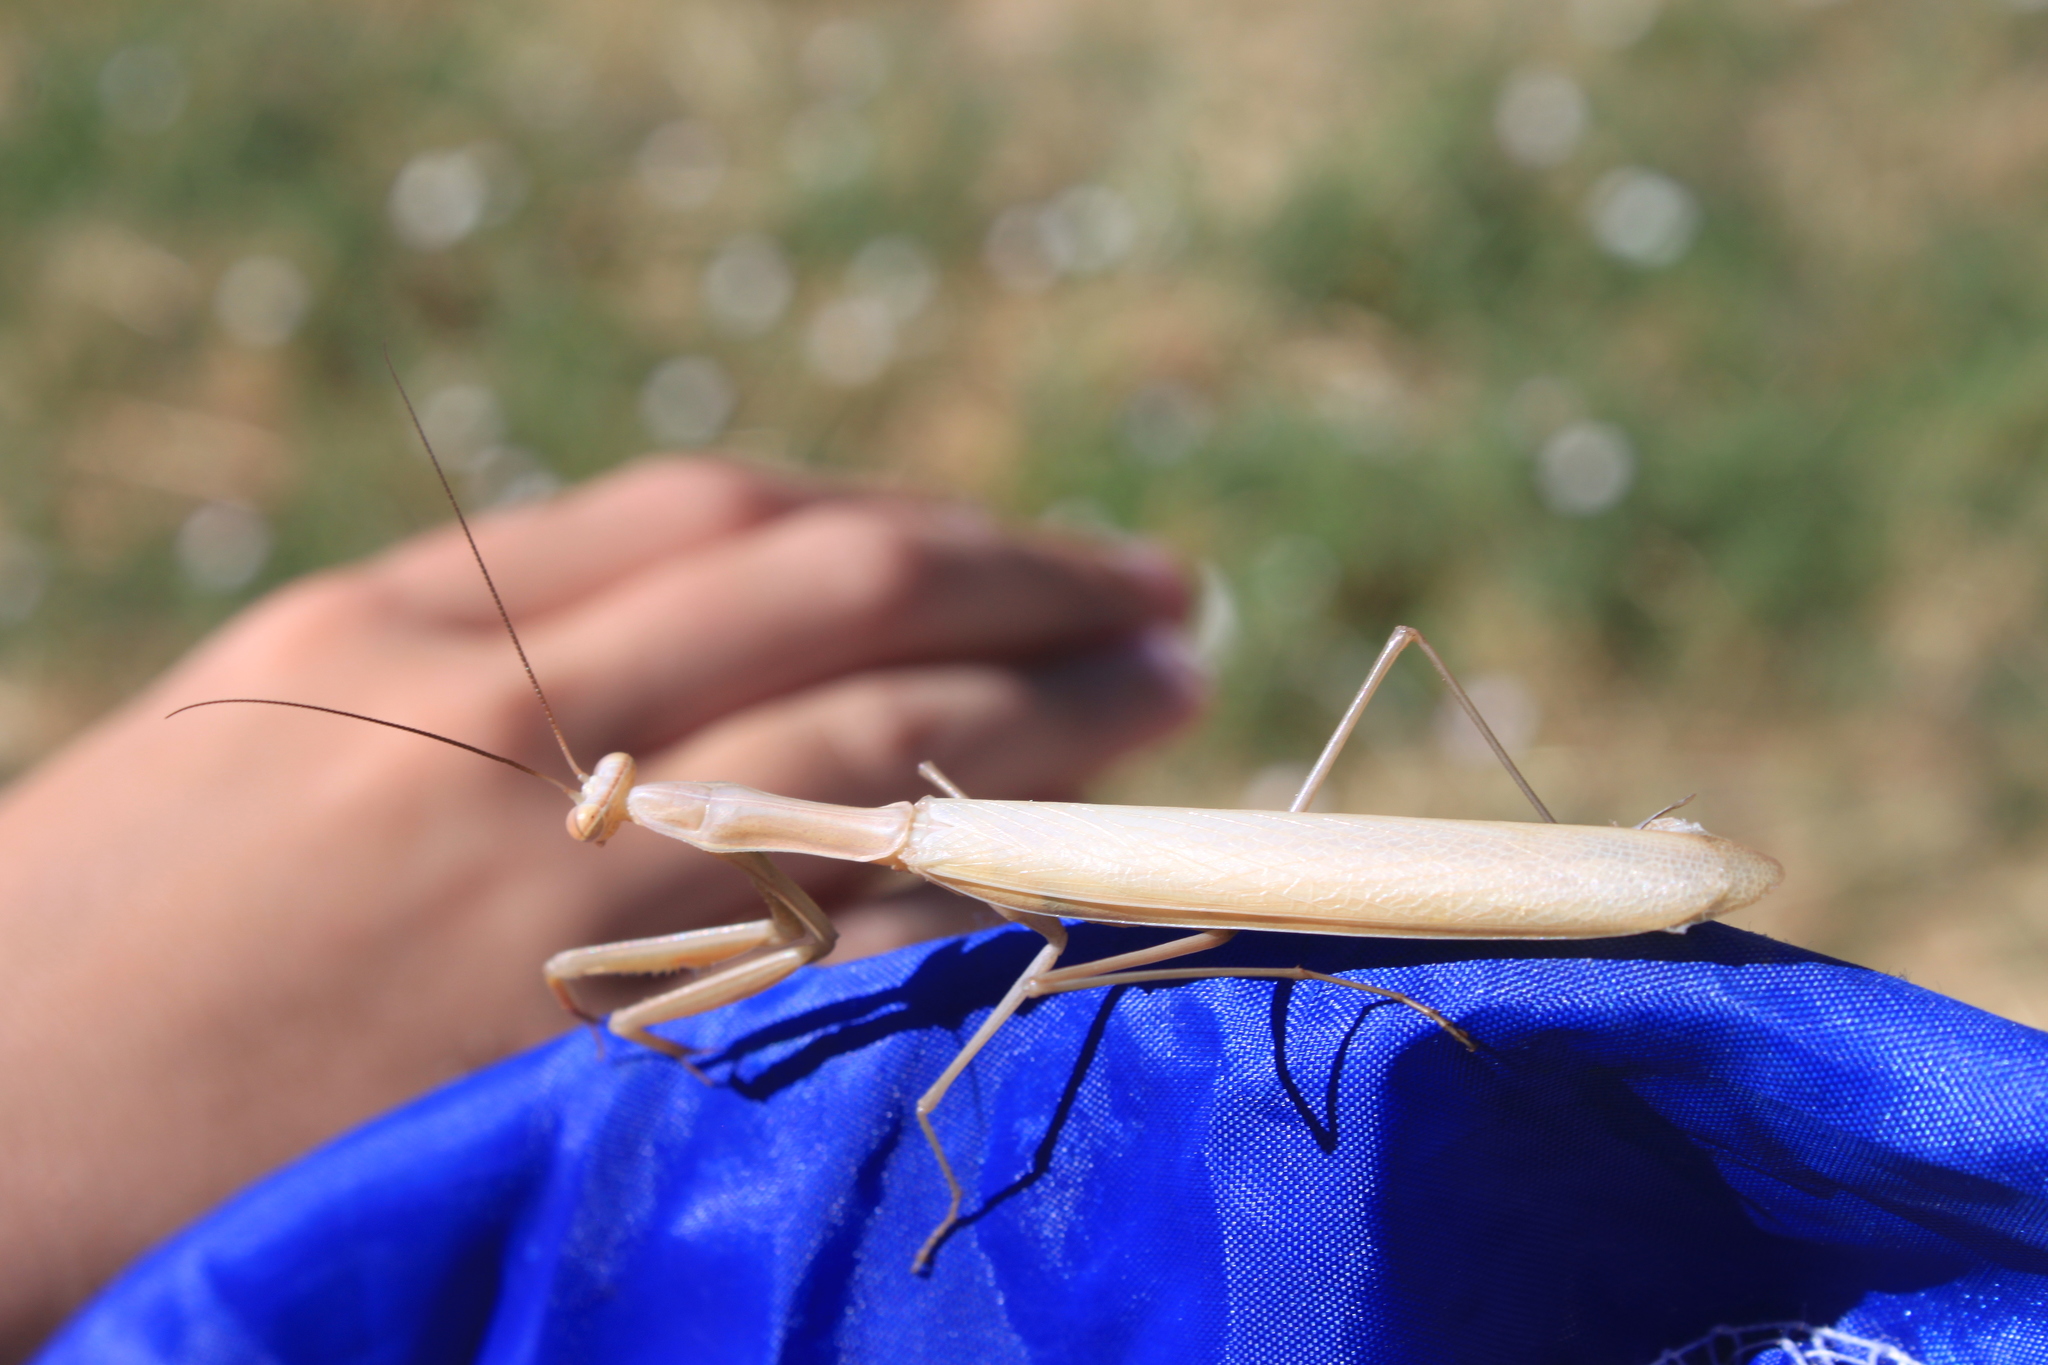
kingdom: Animalia
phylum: Arthropoda
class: Insecta
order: Mantodea
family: Mantidae
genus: Mantis
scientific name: Mantis religiosa
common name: Praying mantis
